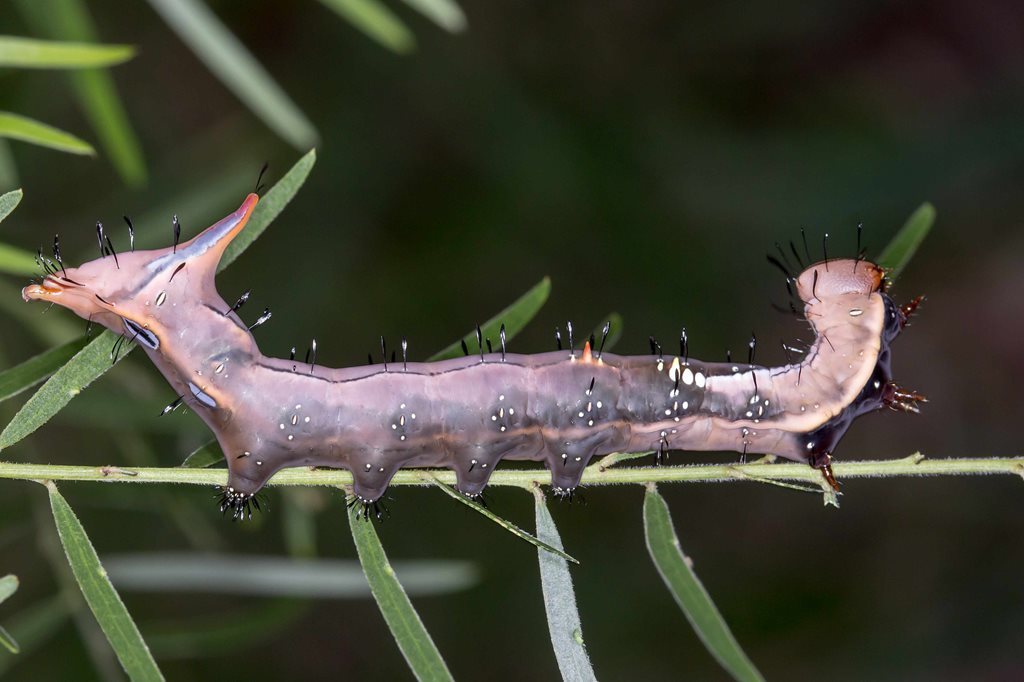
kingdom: Animalia
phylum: Arthropoda
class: Insecta
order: Lepidoptera
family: Notodontidae
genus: Neola
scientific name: Neola semiaurata
